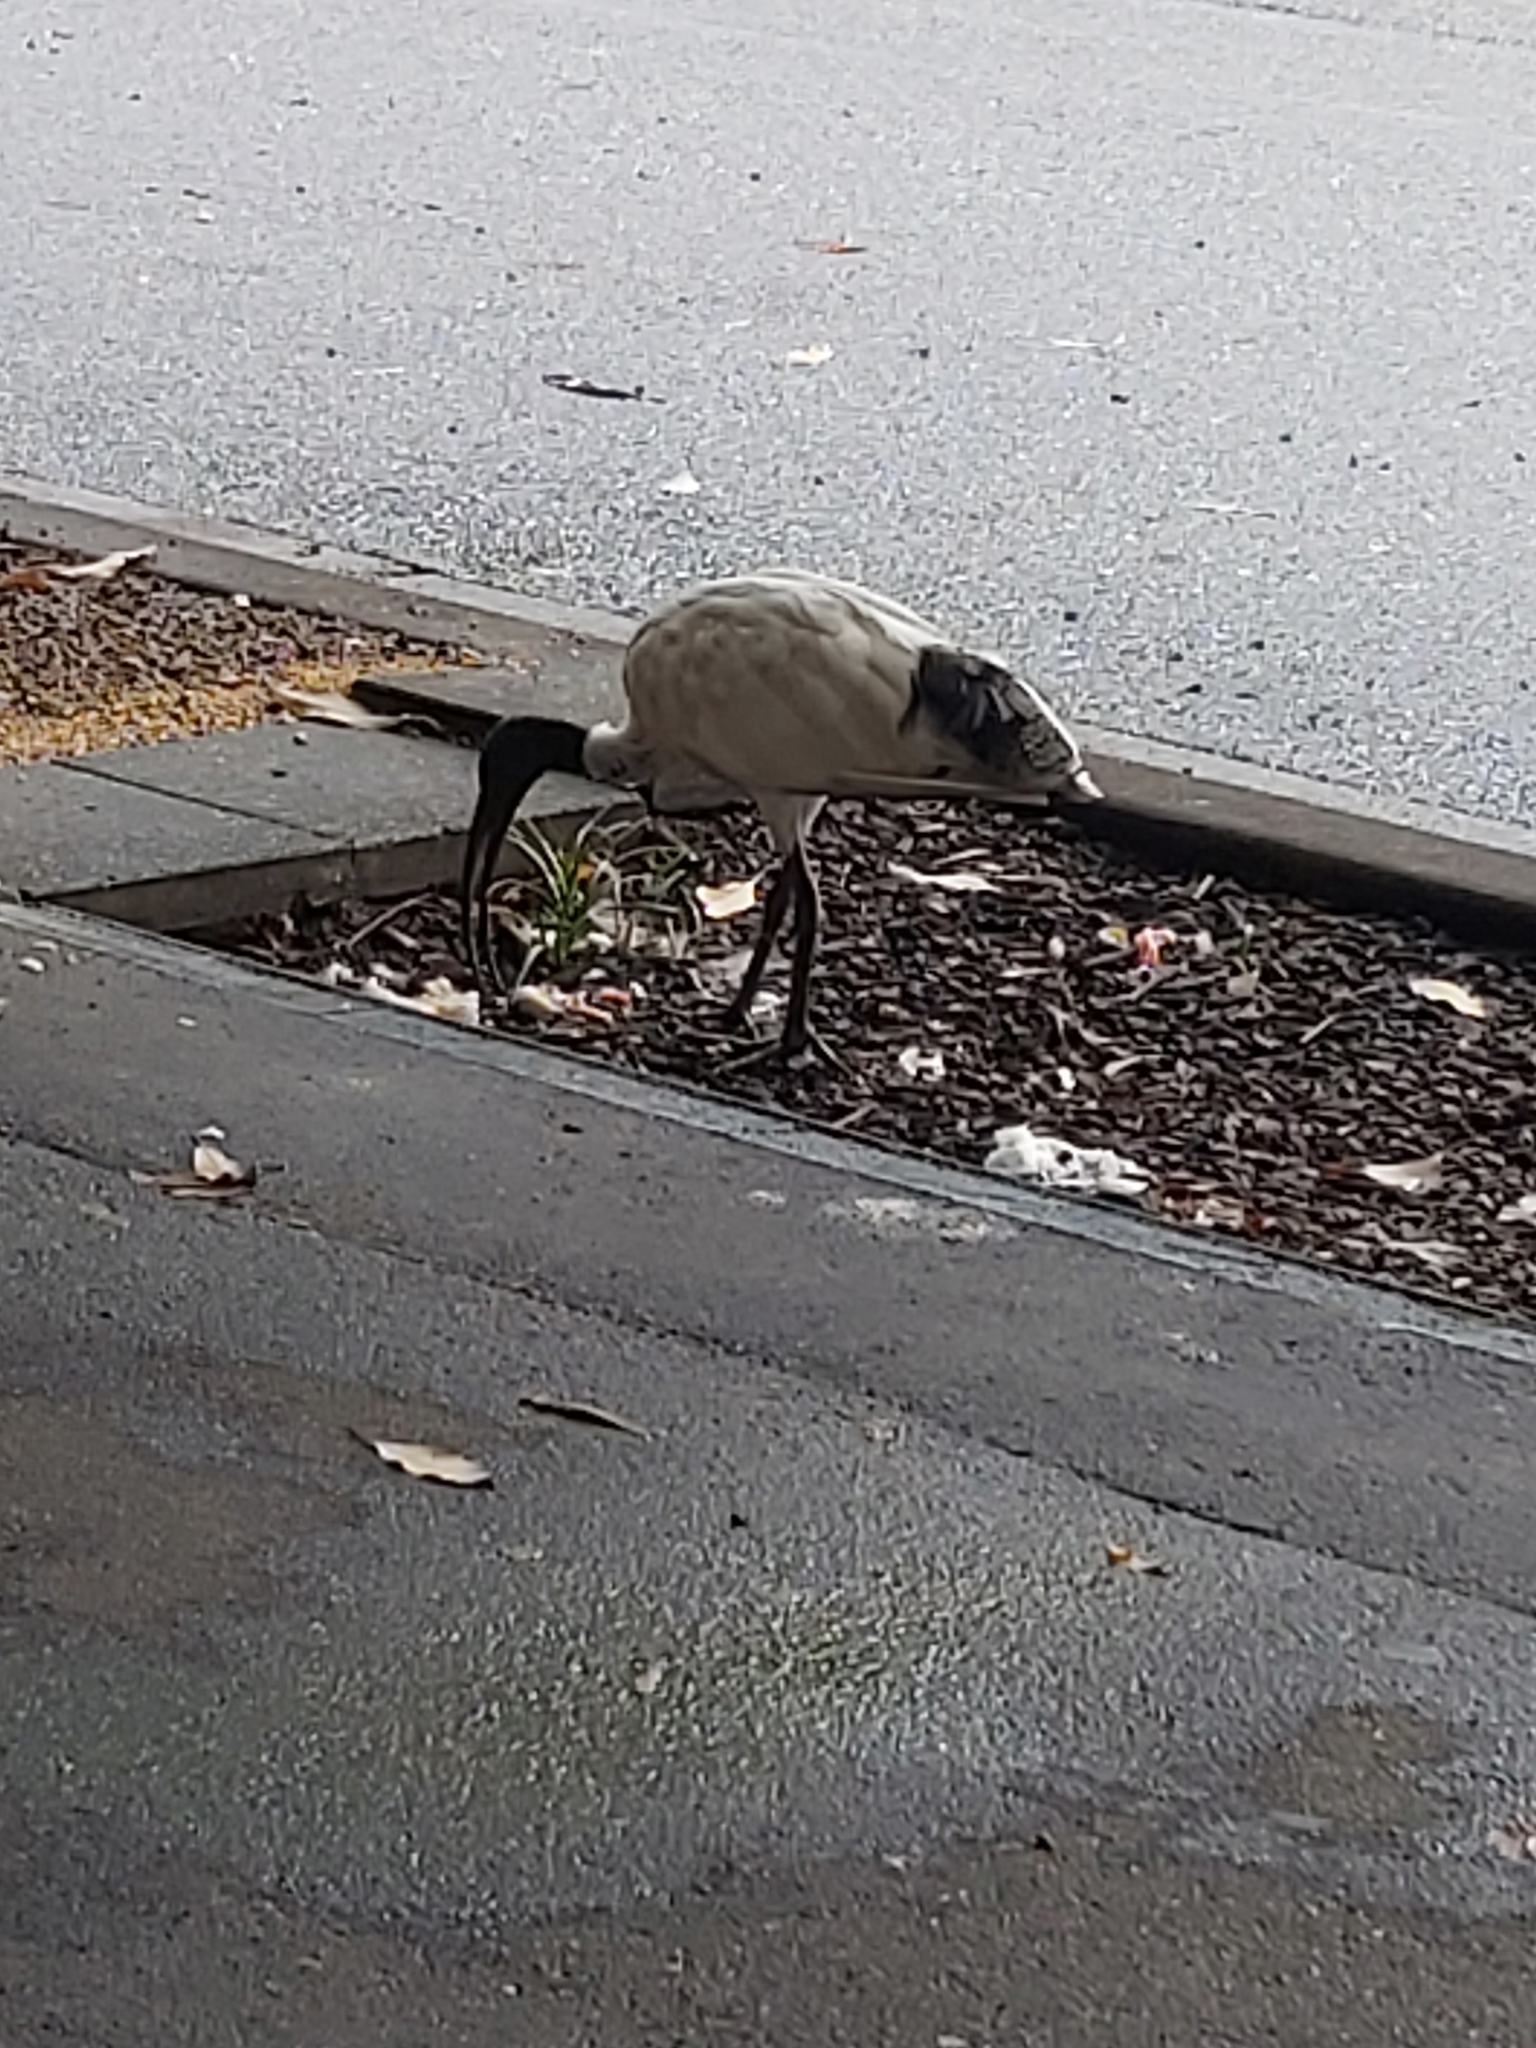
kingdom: Animalia
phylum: Chordata
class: Aves
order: Pelecaniformes
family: Threskiornithidae
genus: Threskiornis
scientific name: Threskiornis molucca
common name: Australian white ibis
